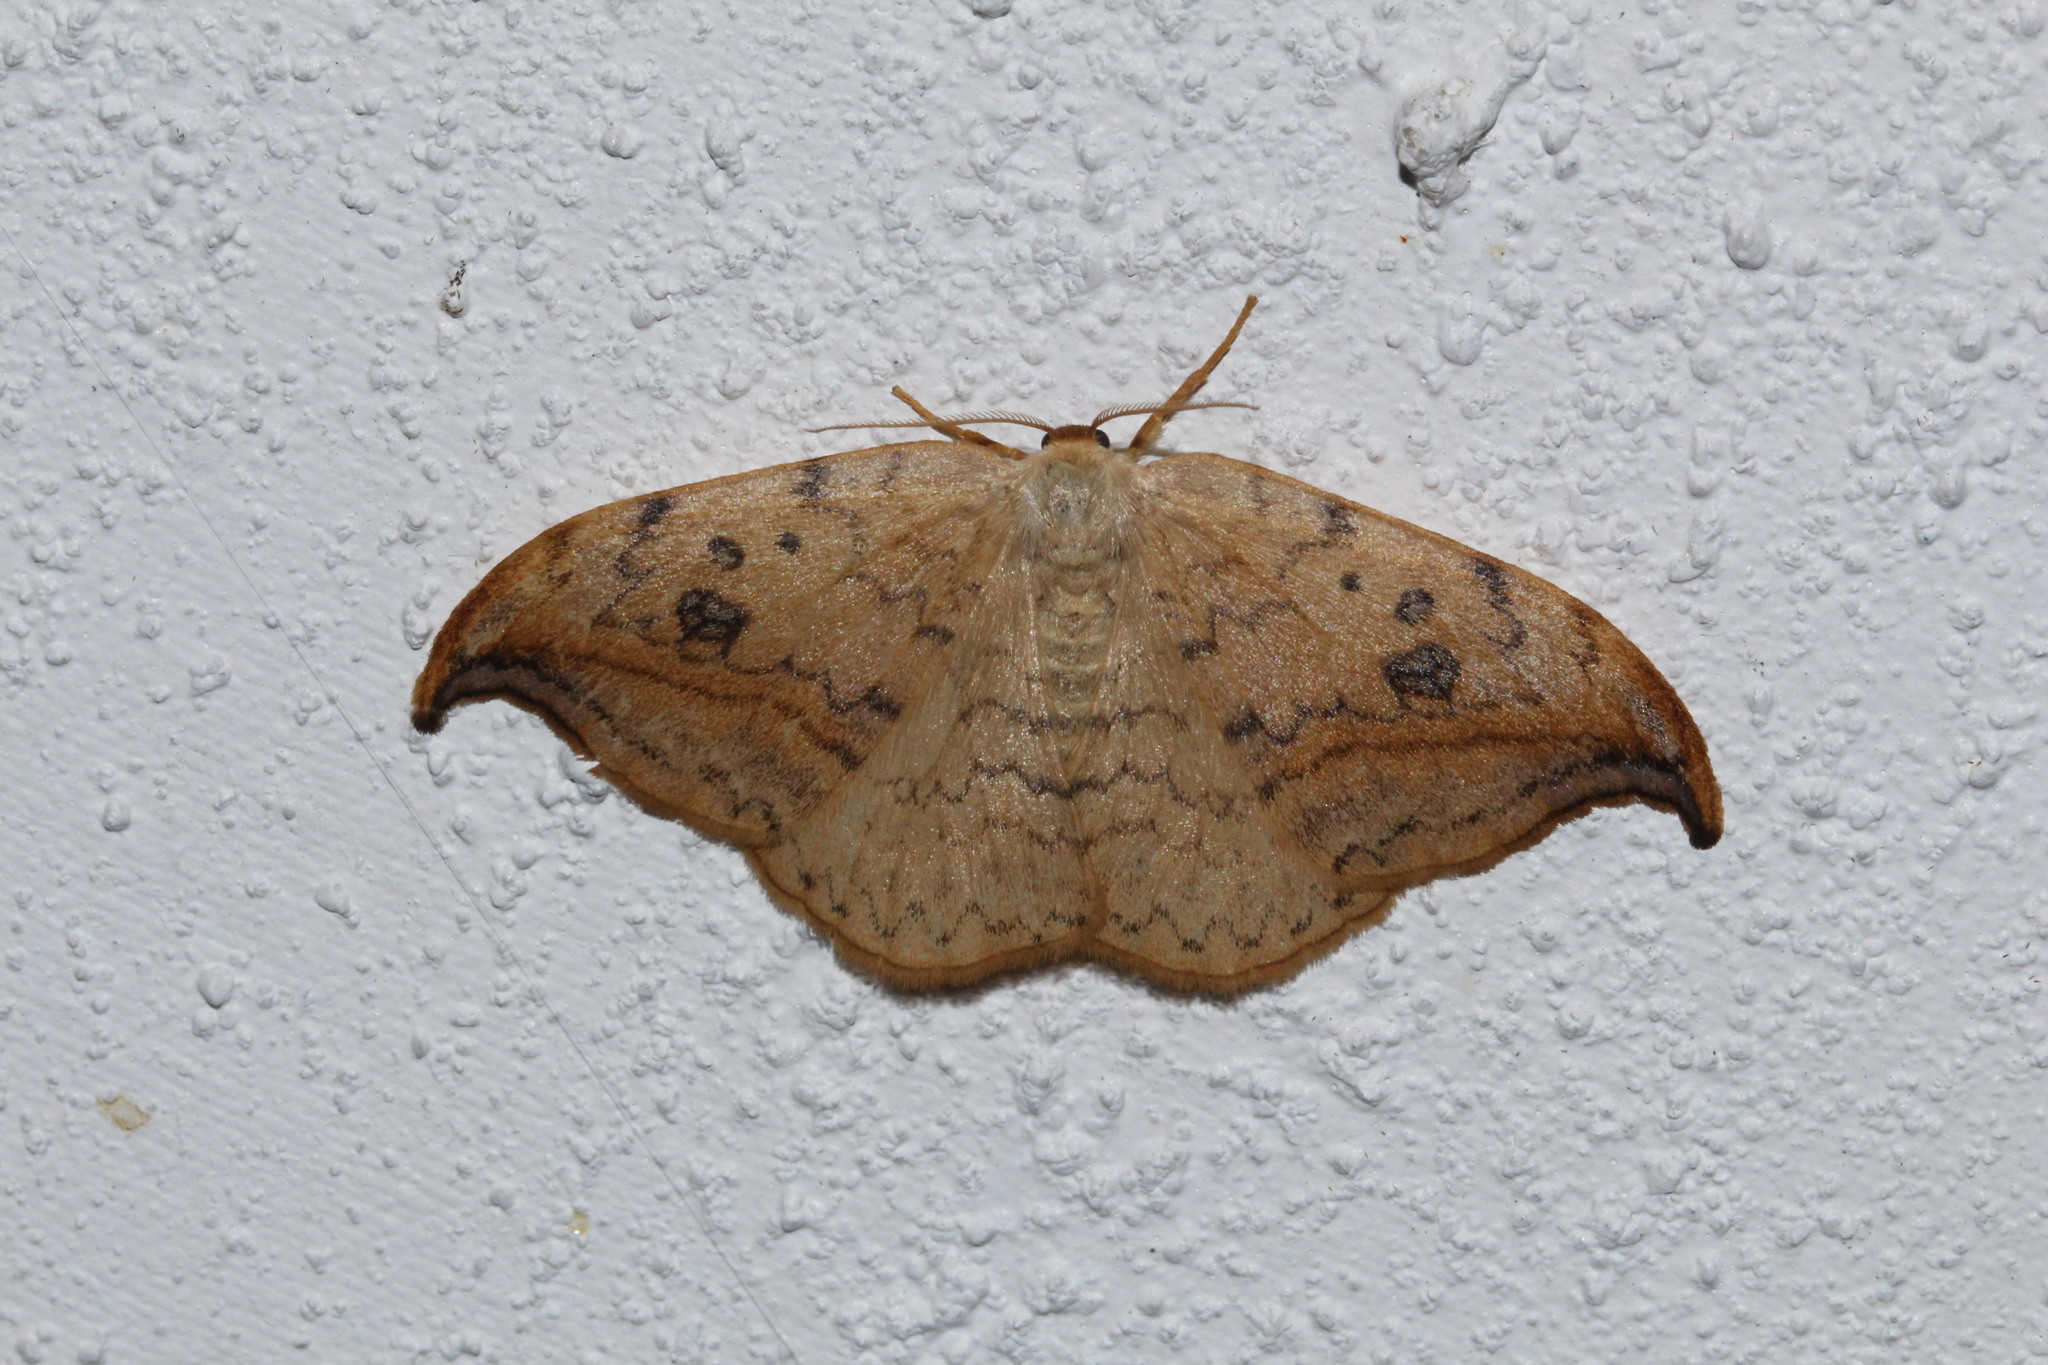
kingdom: Animalia
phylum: Arthropoda
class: Insecta
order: Lepidoptera
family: Drepanidae
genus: Drepana
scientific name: Drepana falcataria
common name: Pebble hook-tip
